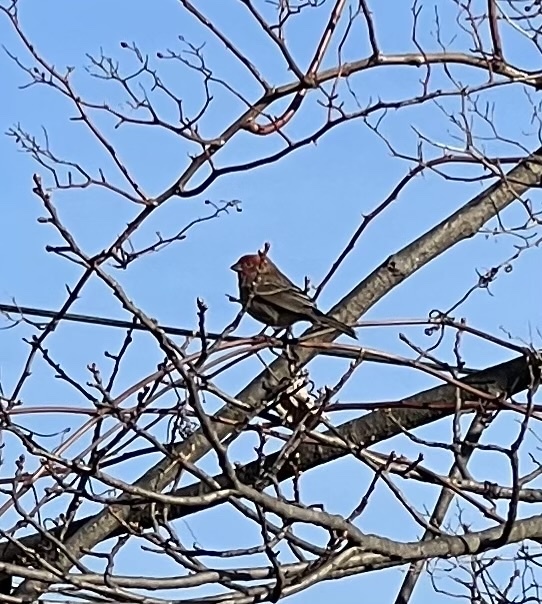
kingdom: Animalia
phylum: Chordata
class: Aves
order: Passeriformes
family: Fringillidae
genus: Haemorhous
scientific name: Haemorhous mexicanus
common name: House finch
